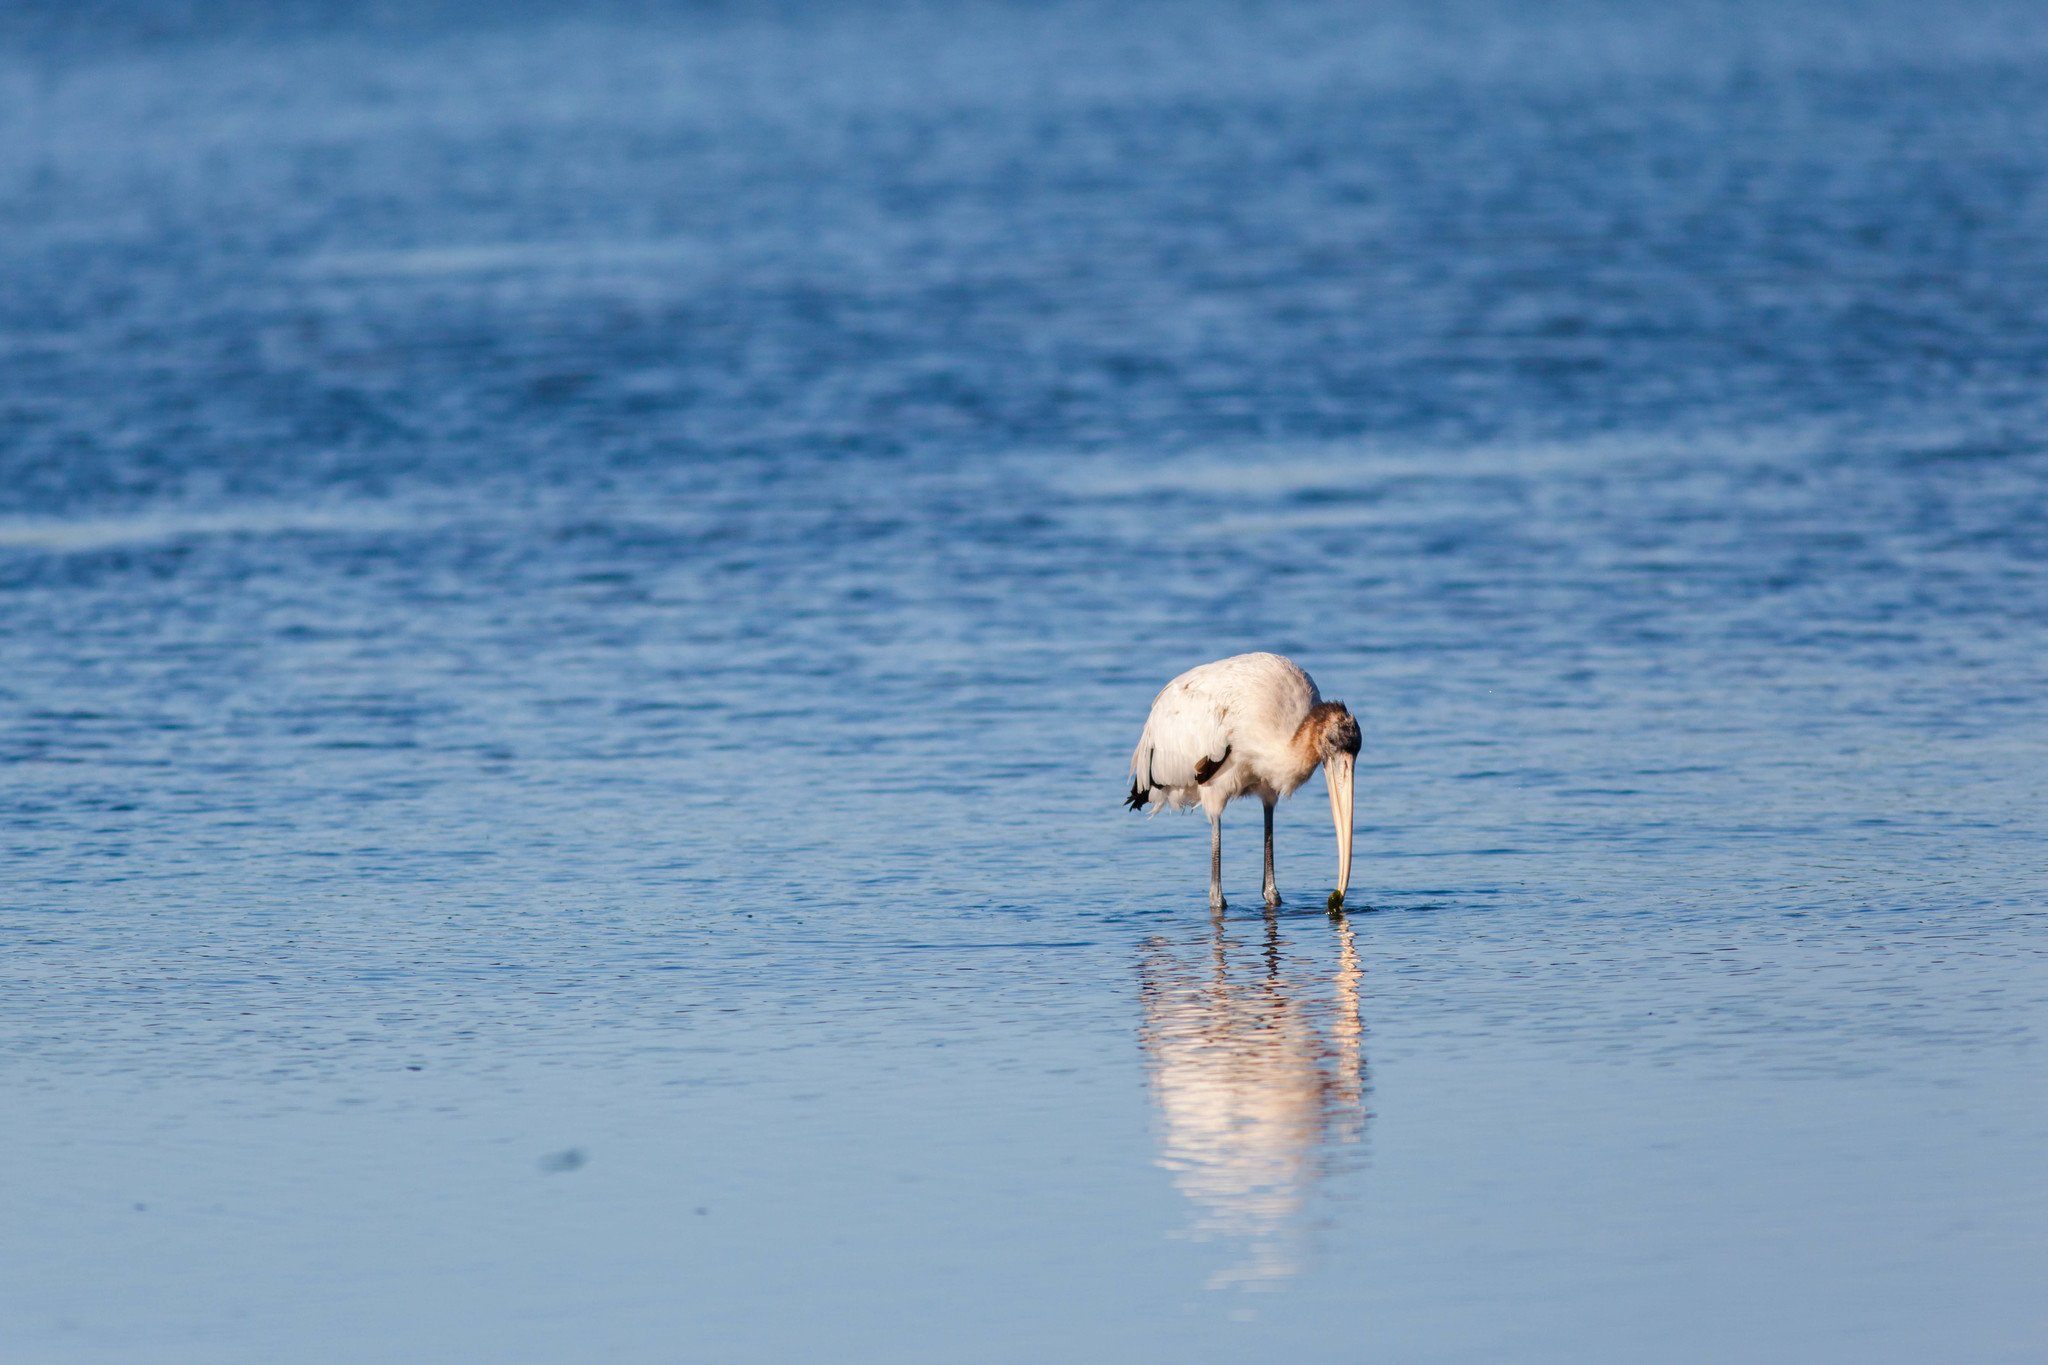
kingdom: Animalia
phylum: Chordata
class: Aves
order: Ciconiiformes
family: Ciconiidae
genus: Mycteria
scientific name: Mycteria americana
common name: Wood stork
